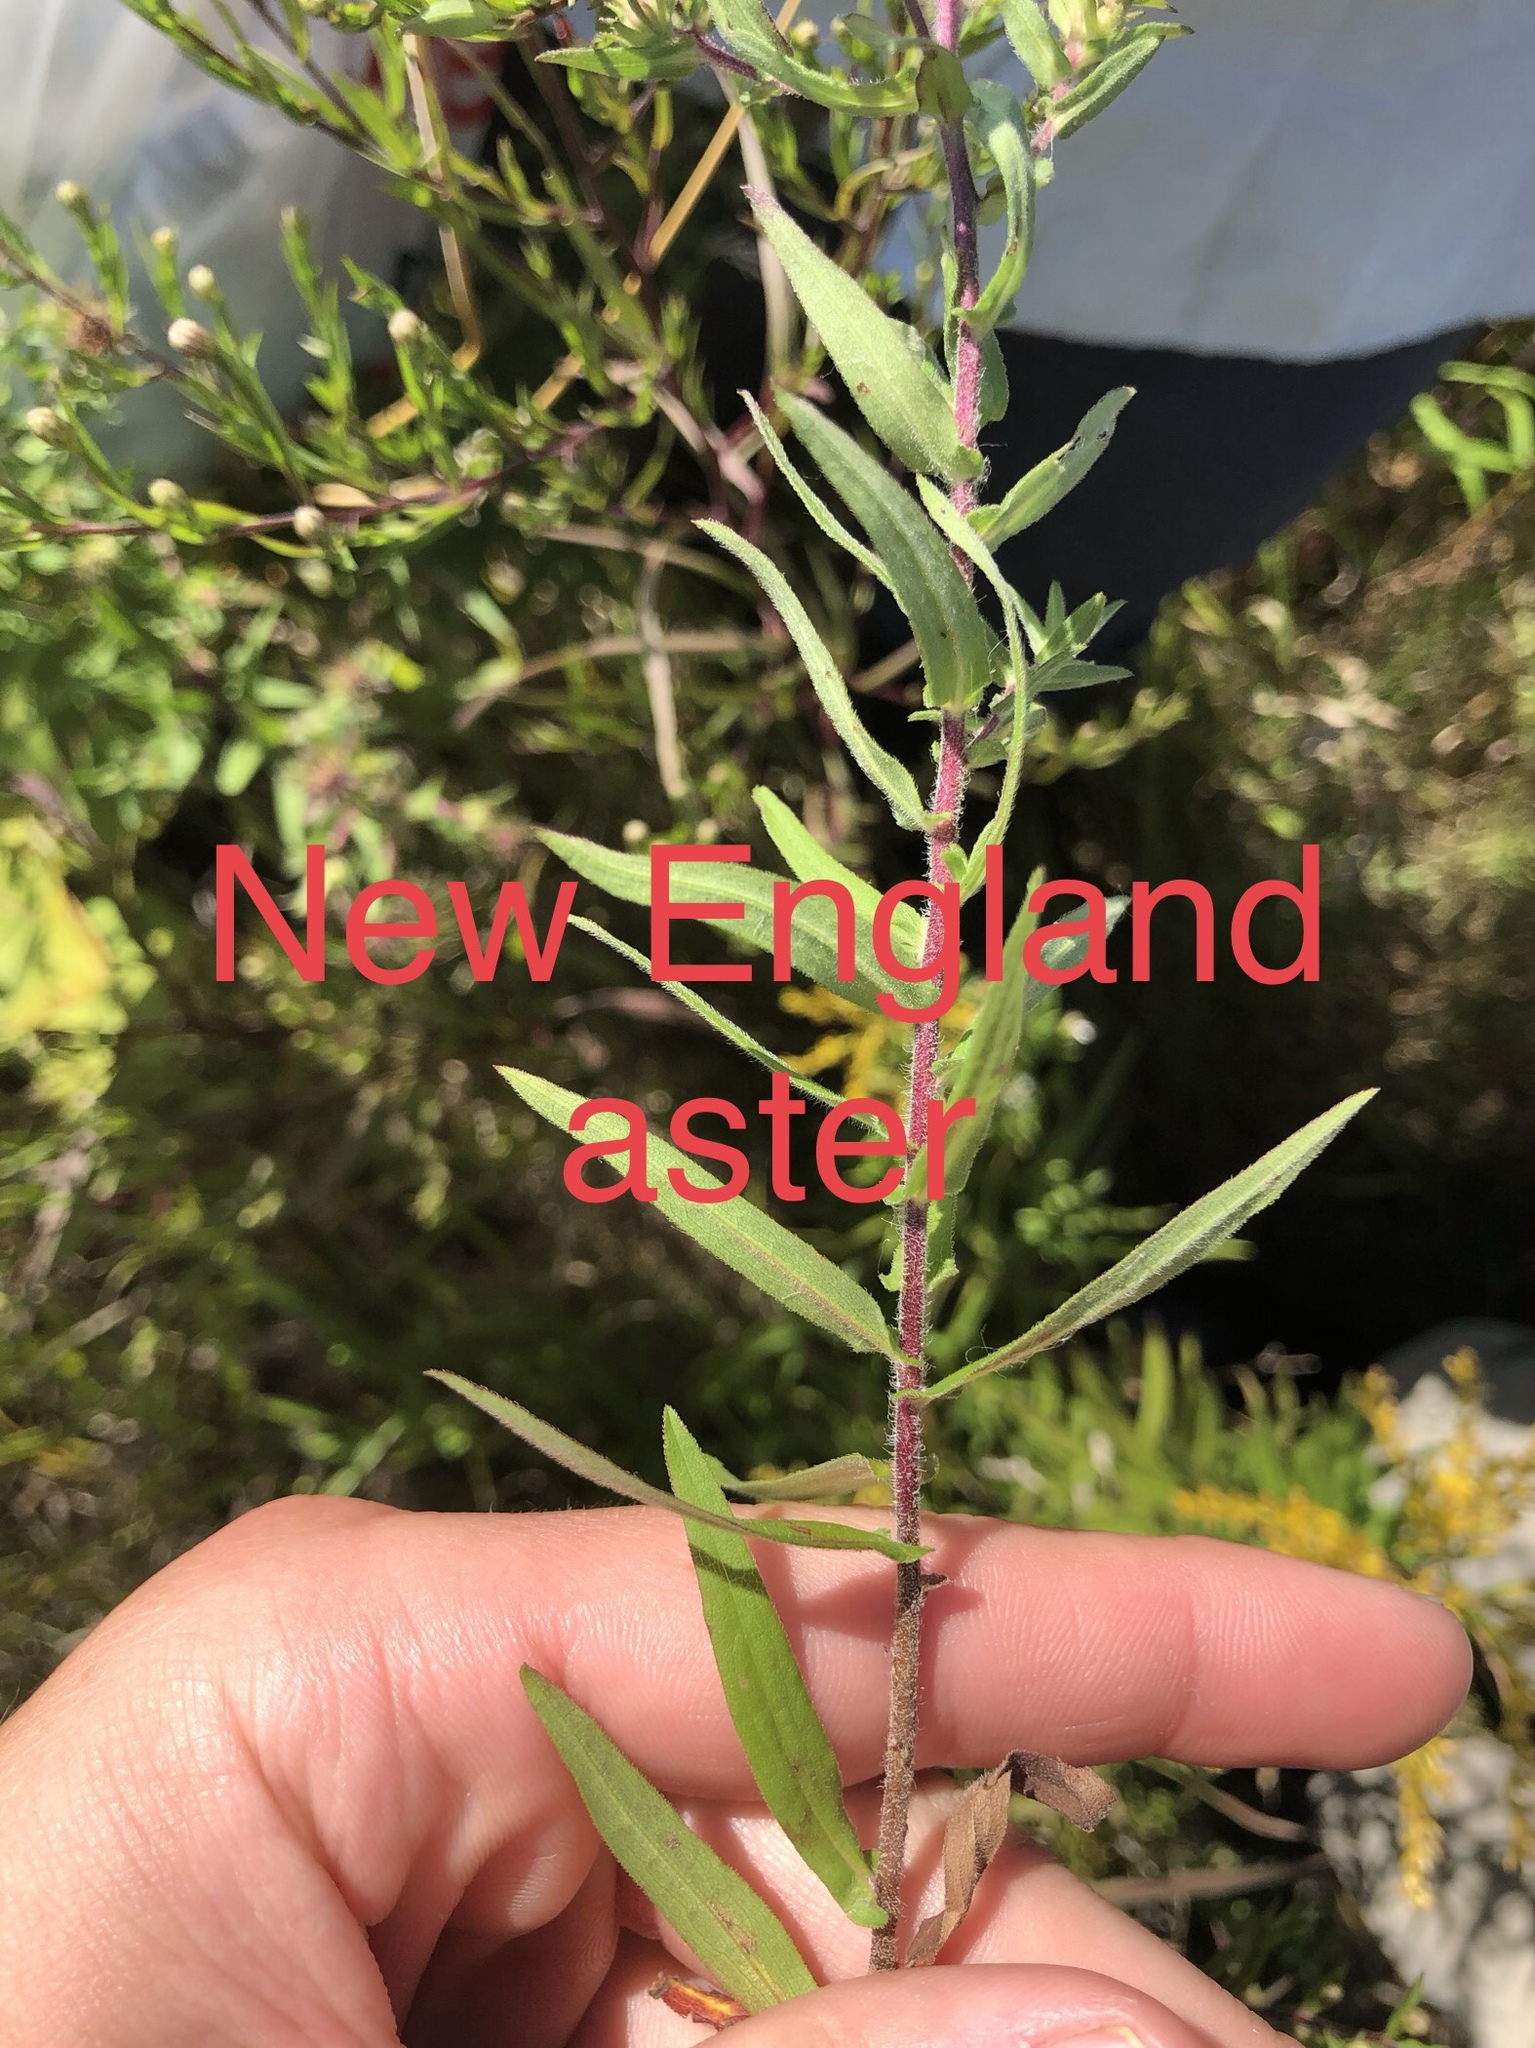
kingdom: Plantae
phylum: Tracheophyta
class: Magnoliopsida
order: Asterales
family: Asteraceae
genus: Symphyotrichum
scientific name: Symphyotrichum novae-angliae
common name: Michaelmas daisy
